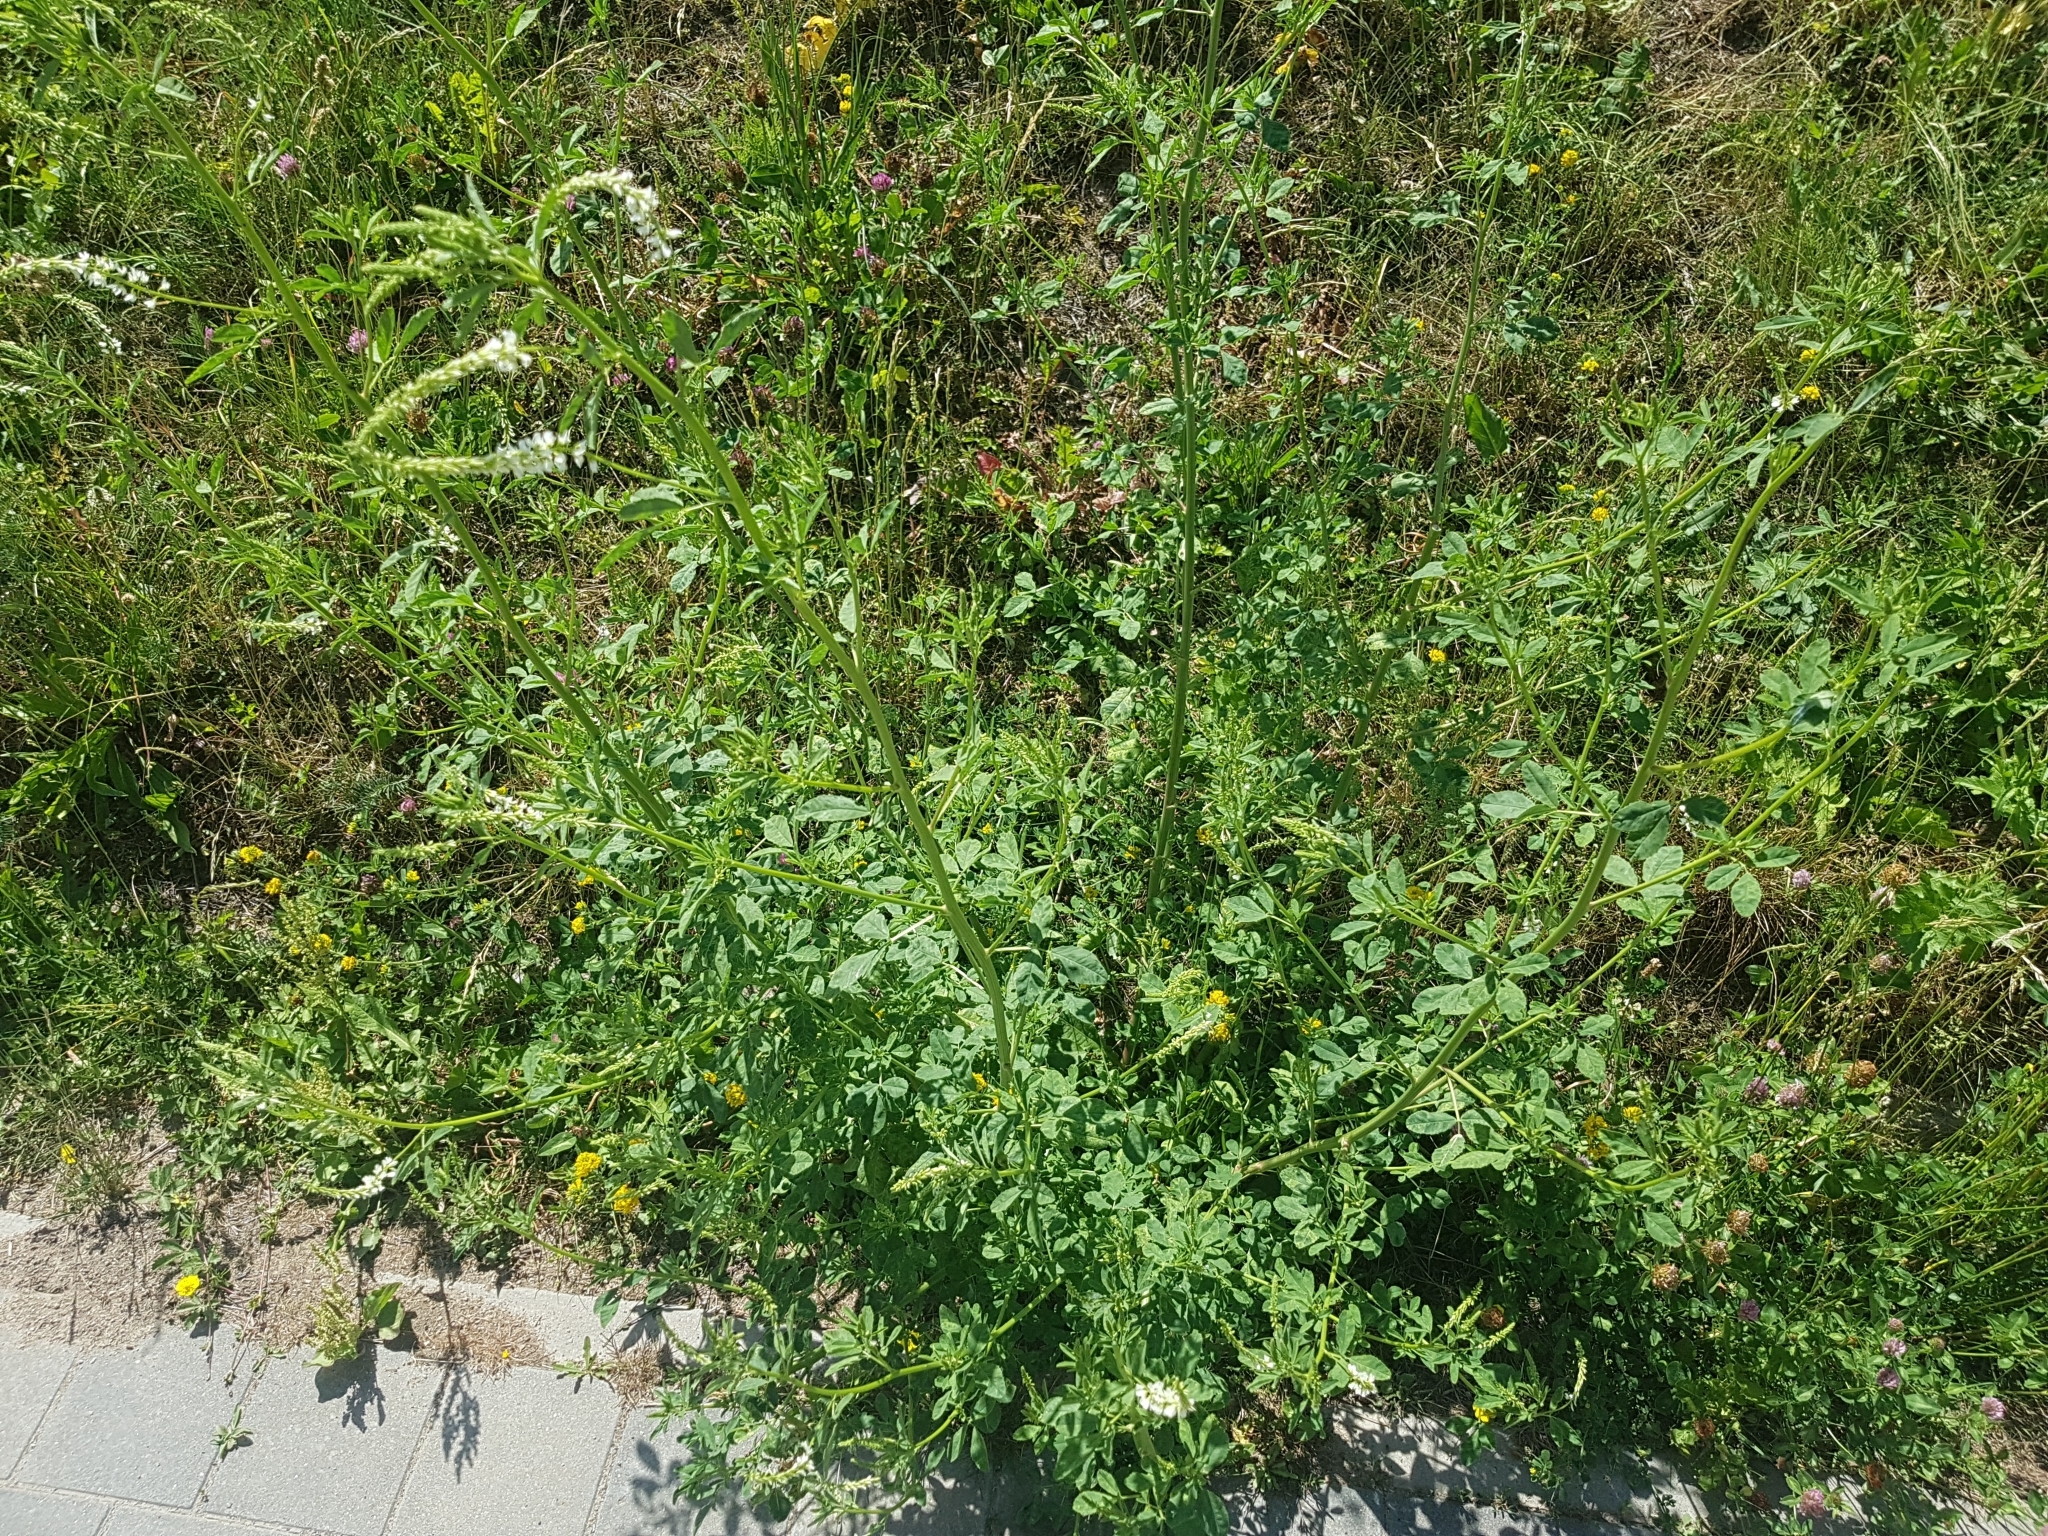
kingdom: Plantae
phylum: Tracheophyta
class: Magnoliopsida
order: Fabales
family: Fabaceae
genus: Melilotus
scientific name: Melilotus albus
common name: White melilot
